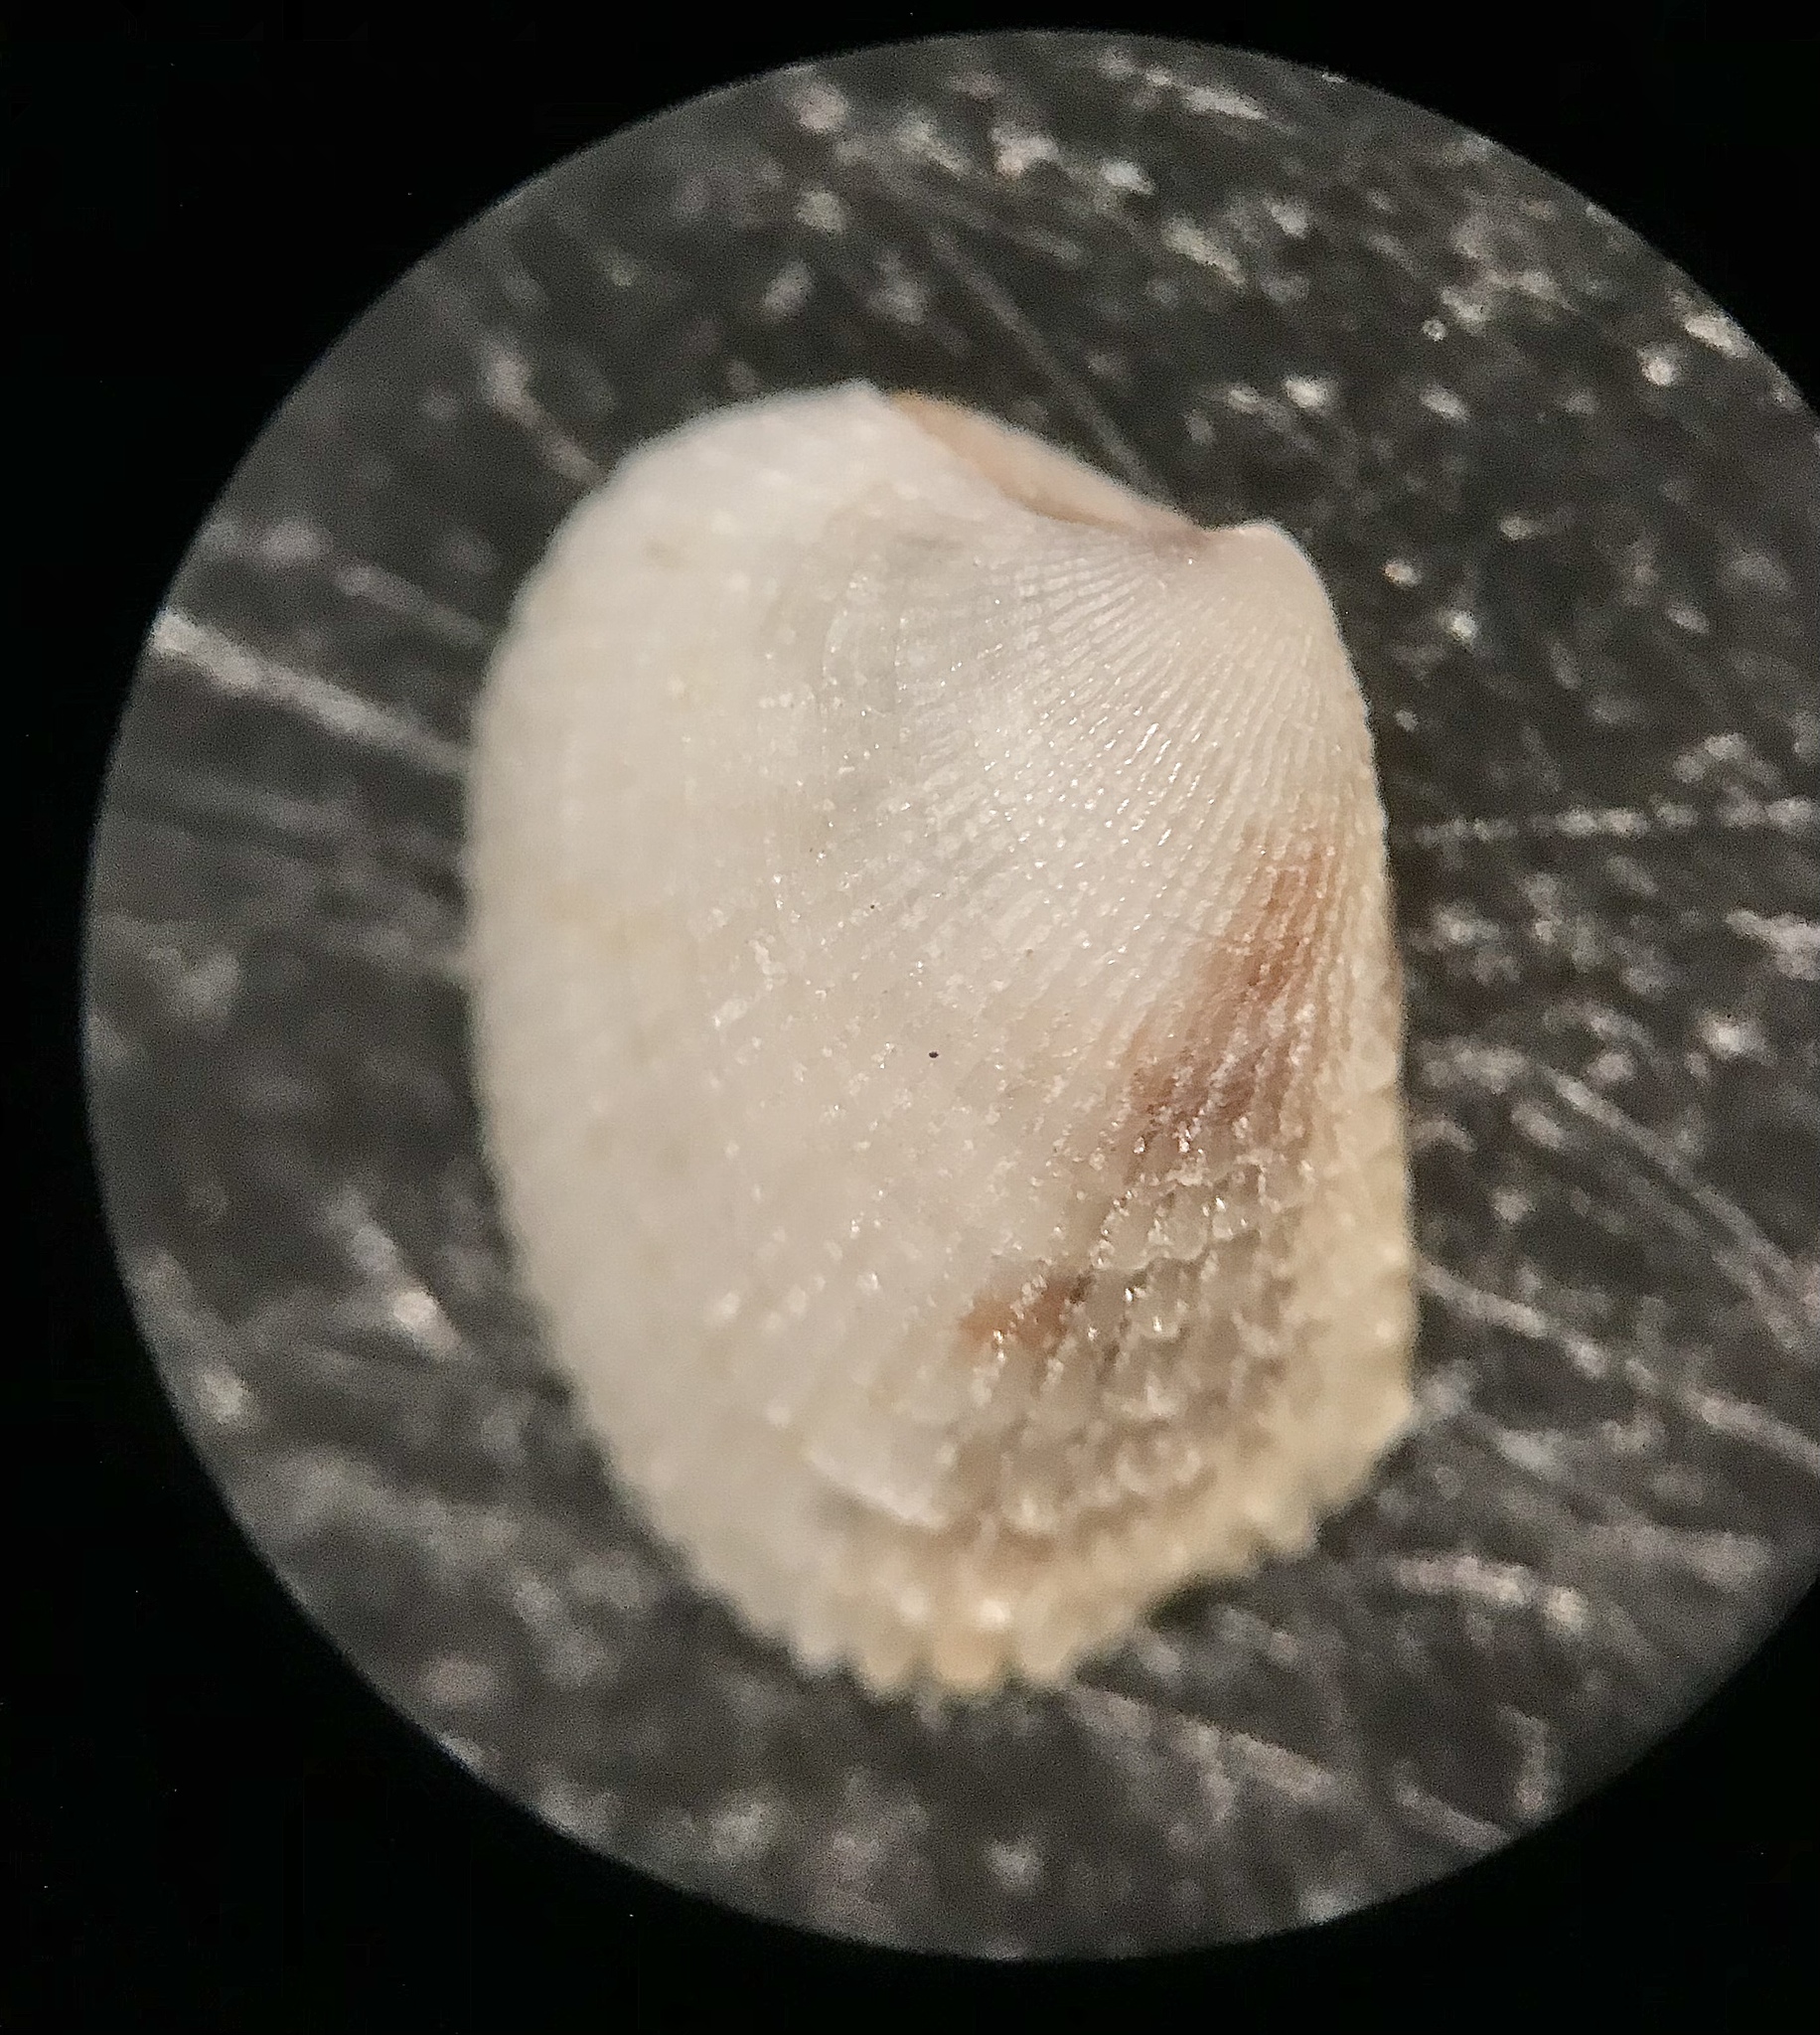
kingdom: Animalia
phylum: Mollusca
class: Bivalvia
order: Venerida
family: Veneridae
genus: Chioneryx
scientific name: Chioneryx grus
